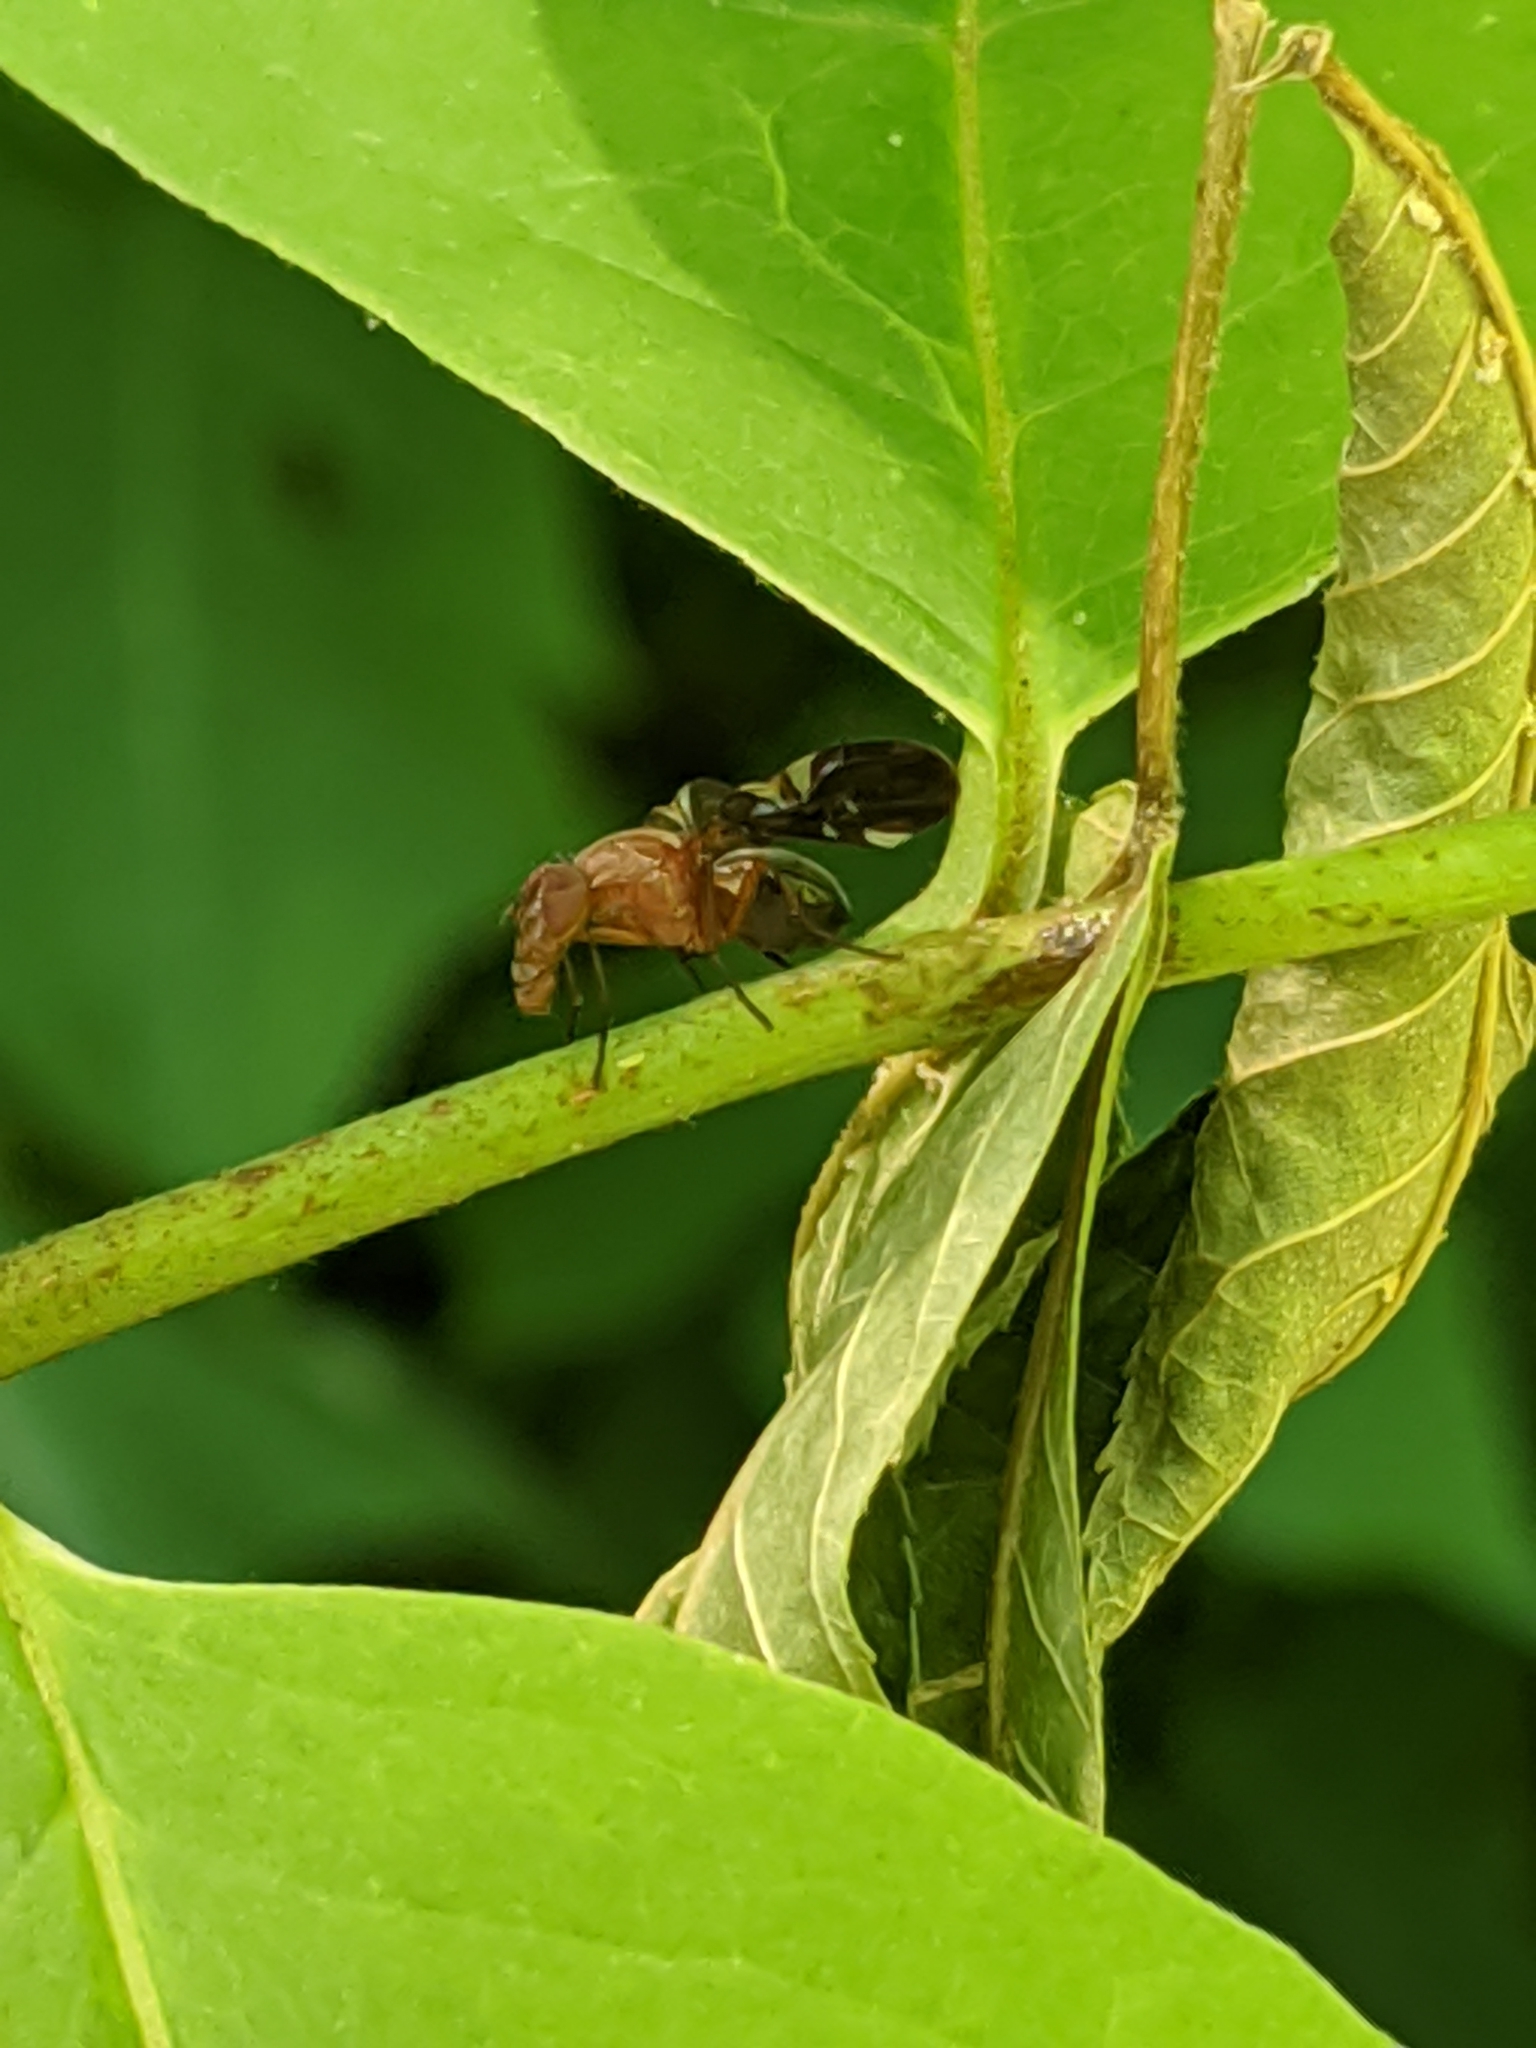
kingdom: Animalia
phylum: Arthropoda
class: Insecta
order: Diptera
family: Ulidiidae
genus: Delphinia
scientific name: Delphinia picta
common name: Common picture-winged fly
